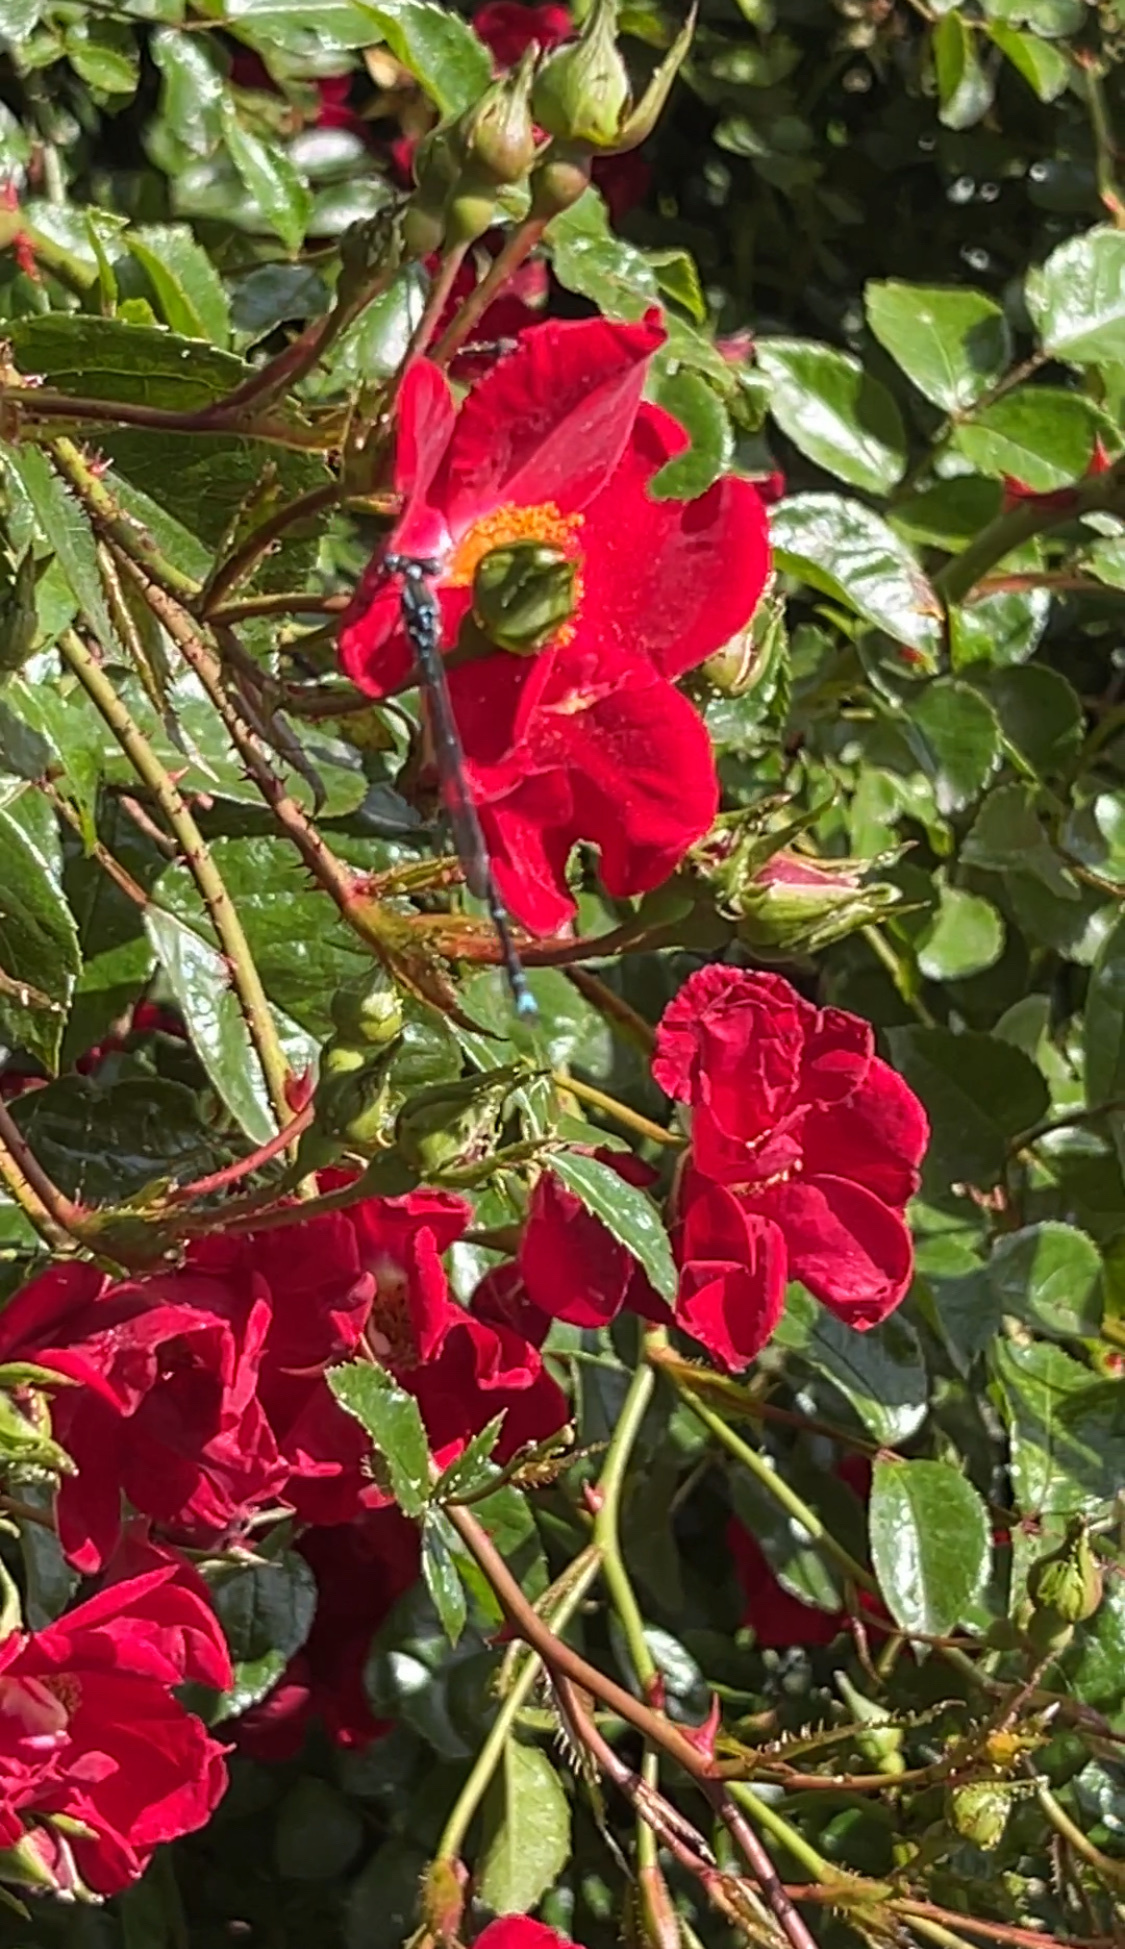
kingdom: Animalia
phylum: Arthropoda
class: Insecta
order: Odonata
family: Lestidae
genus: Austrolestes
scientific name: Austrolestes colensonis
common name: Blue damselfly
